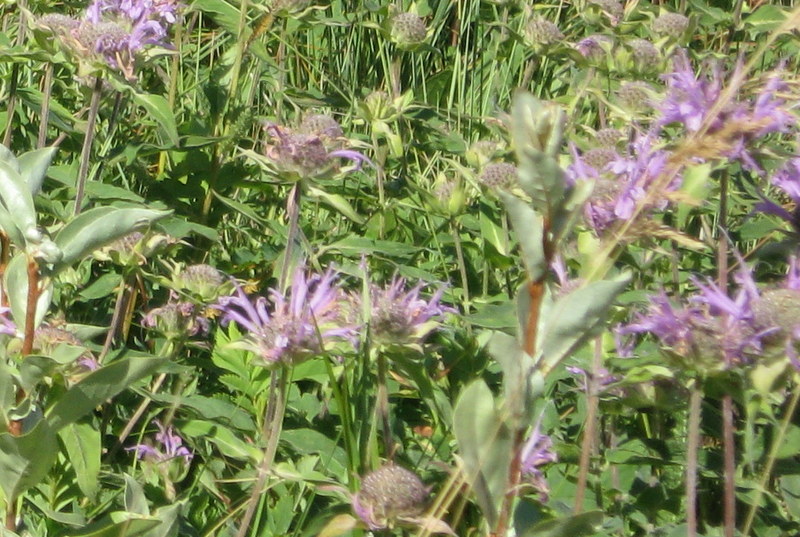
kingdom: Plantae
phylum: Tracheophyta
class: Magnoliopsida
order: Lamiales
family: Lamiaceae
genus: Monarda
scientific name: Monarda fistulosa
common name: Purple beebalm
